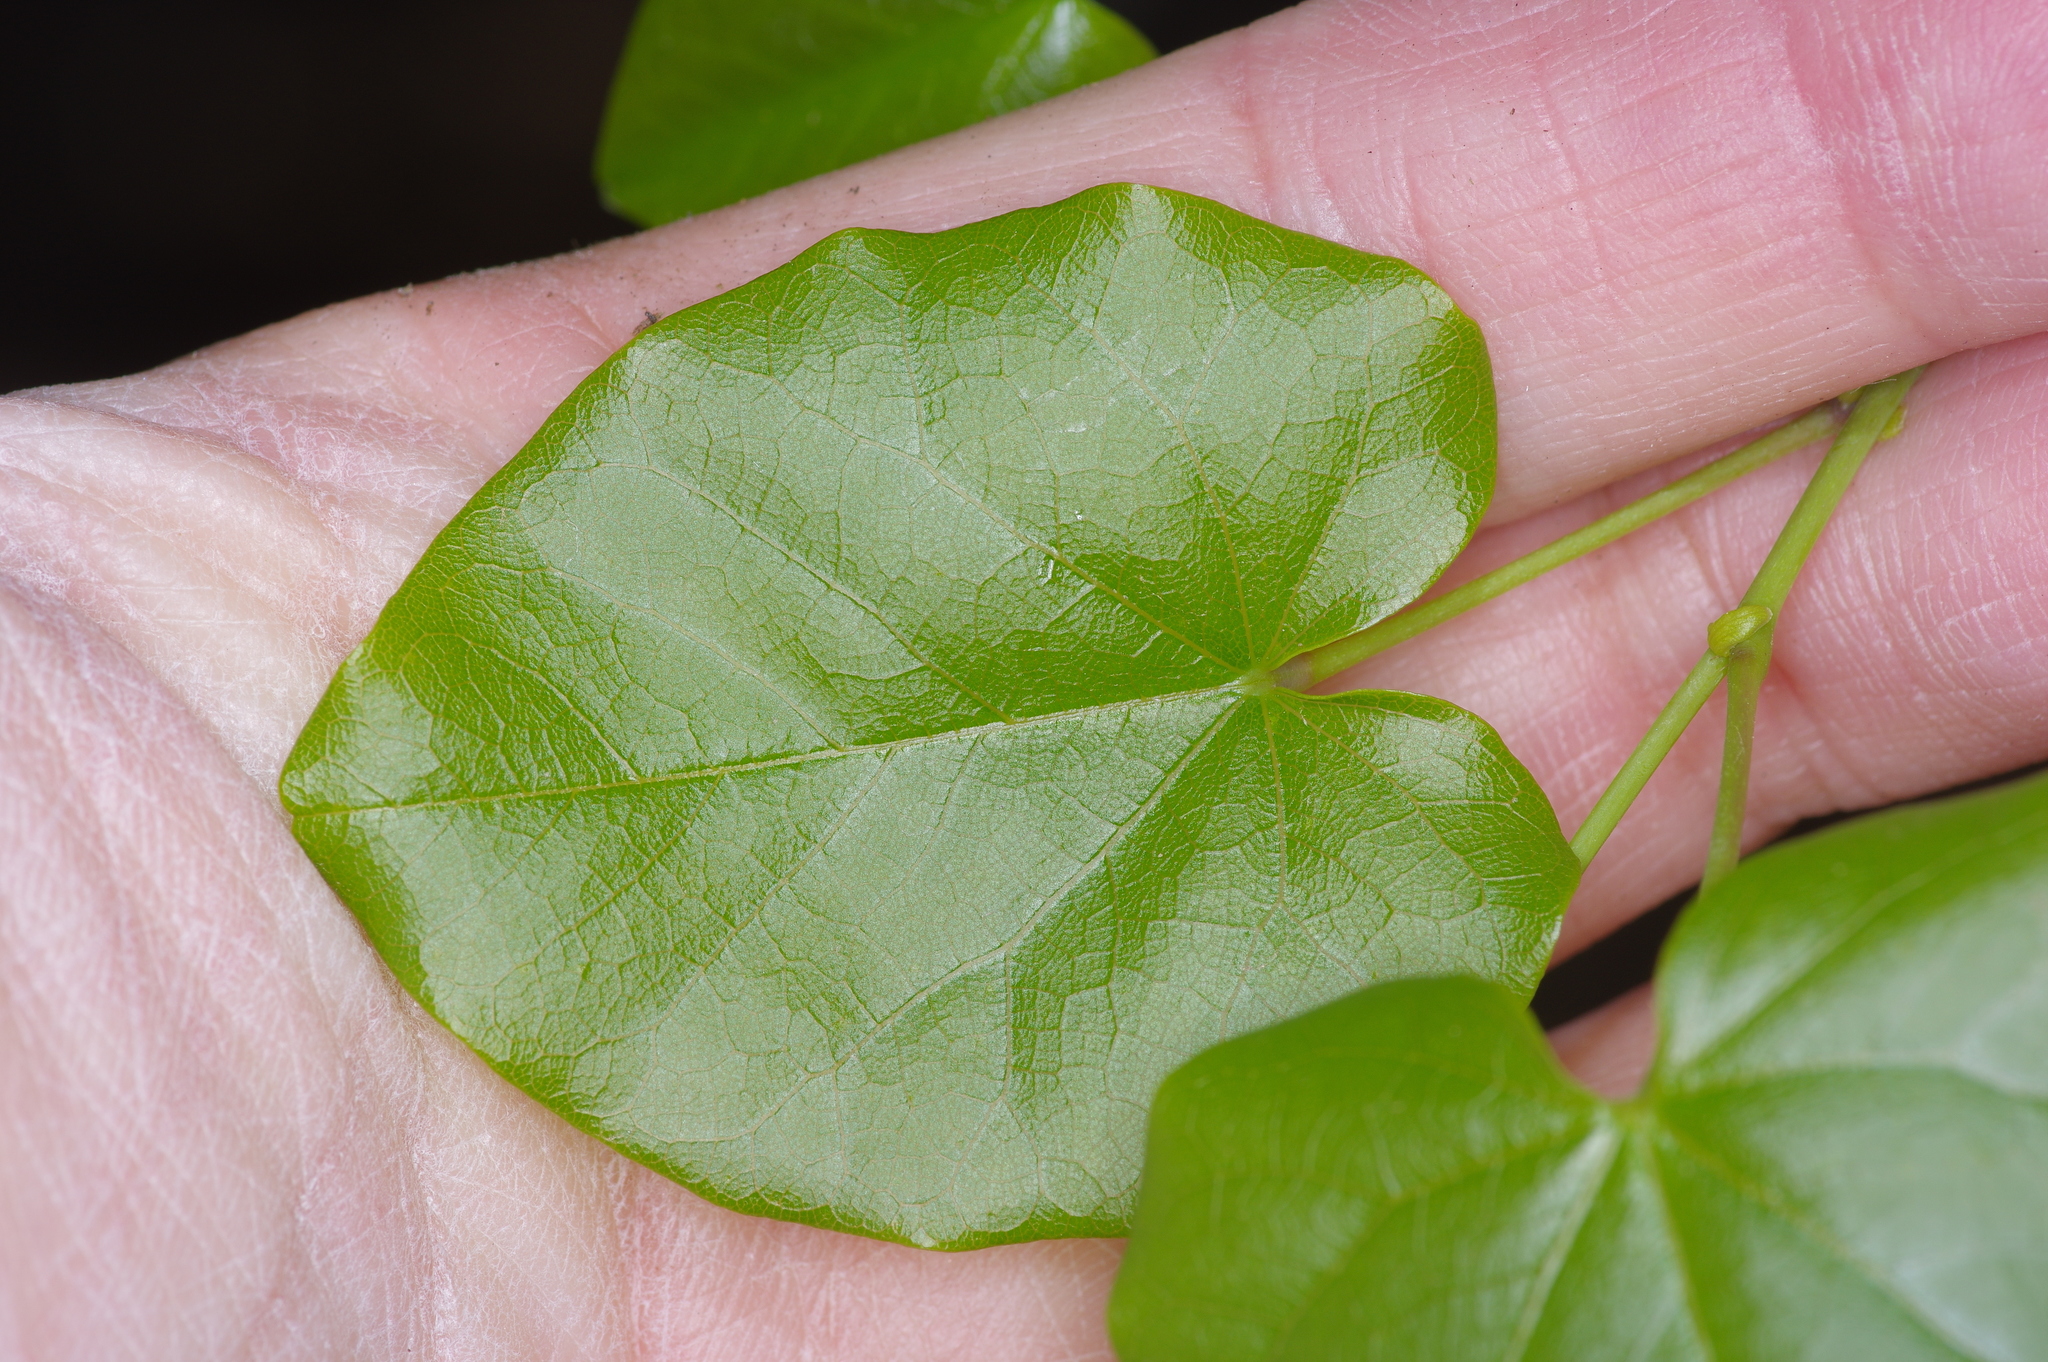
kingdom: Plantae
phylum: Tracheophyta
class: Magnoliopsida
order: Fabales
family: Fabaceae
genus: Cercis
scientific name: Cercis canadensis
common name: Eastern redbud
